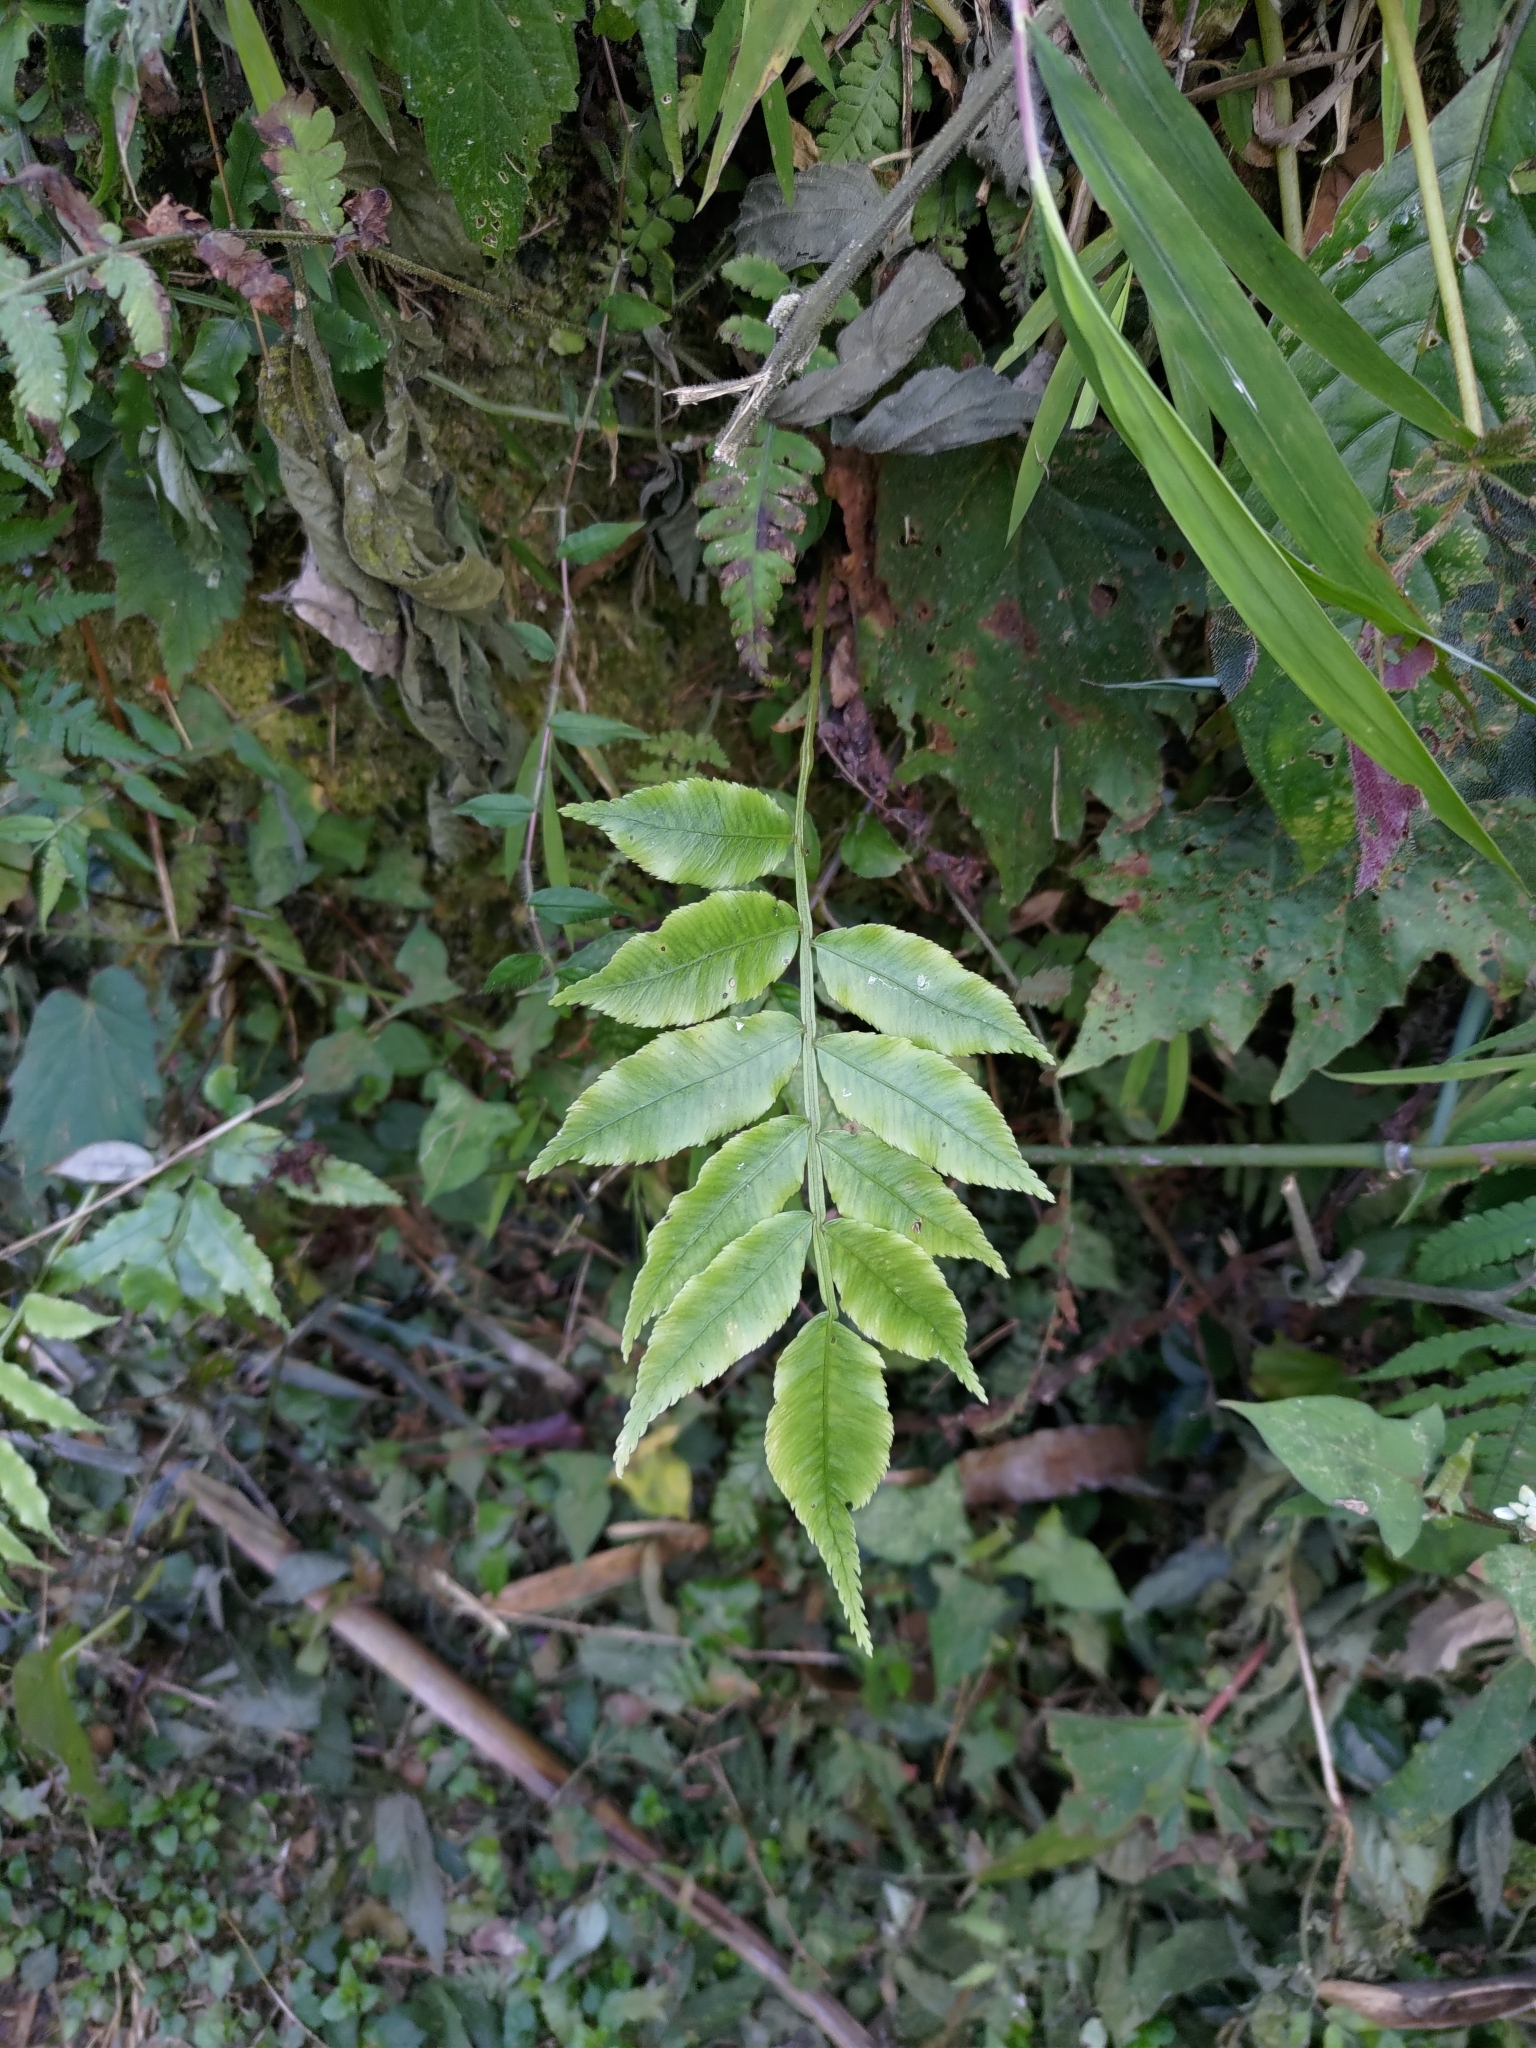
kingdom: Plantae
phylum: Tracheophyta
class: Polypodiopsida
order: Marattiales
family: Marattiaceae
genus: Angiopteris
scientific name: Angiopteris lygodiifolia
